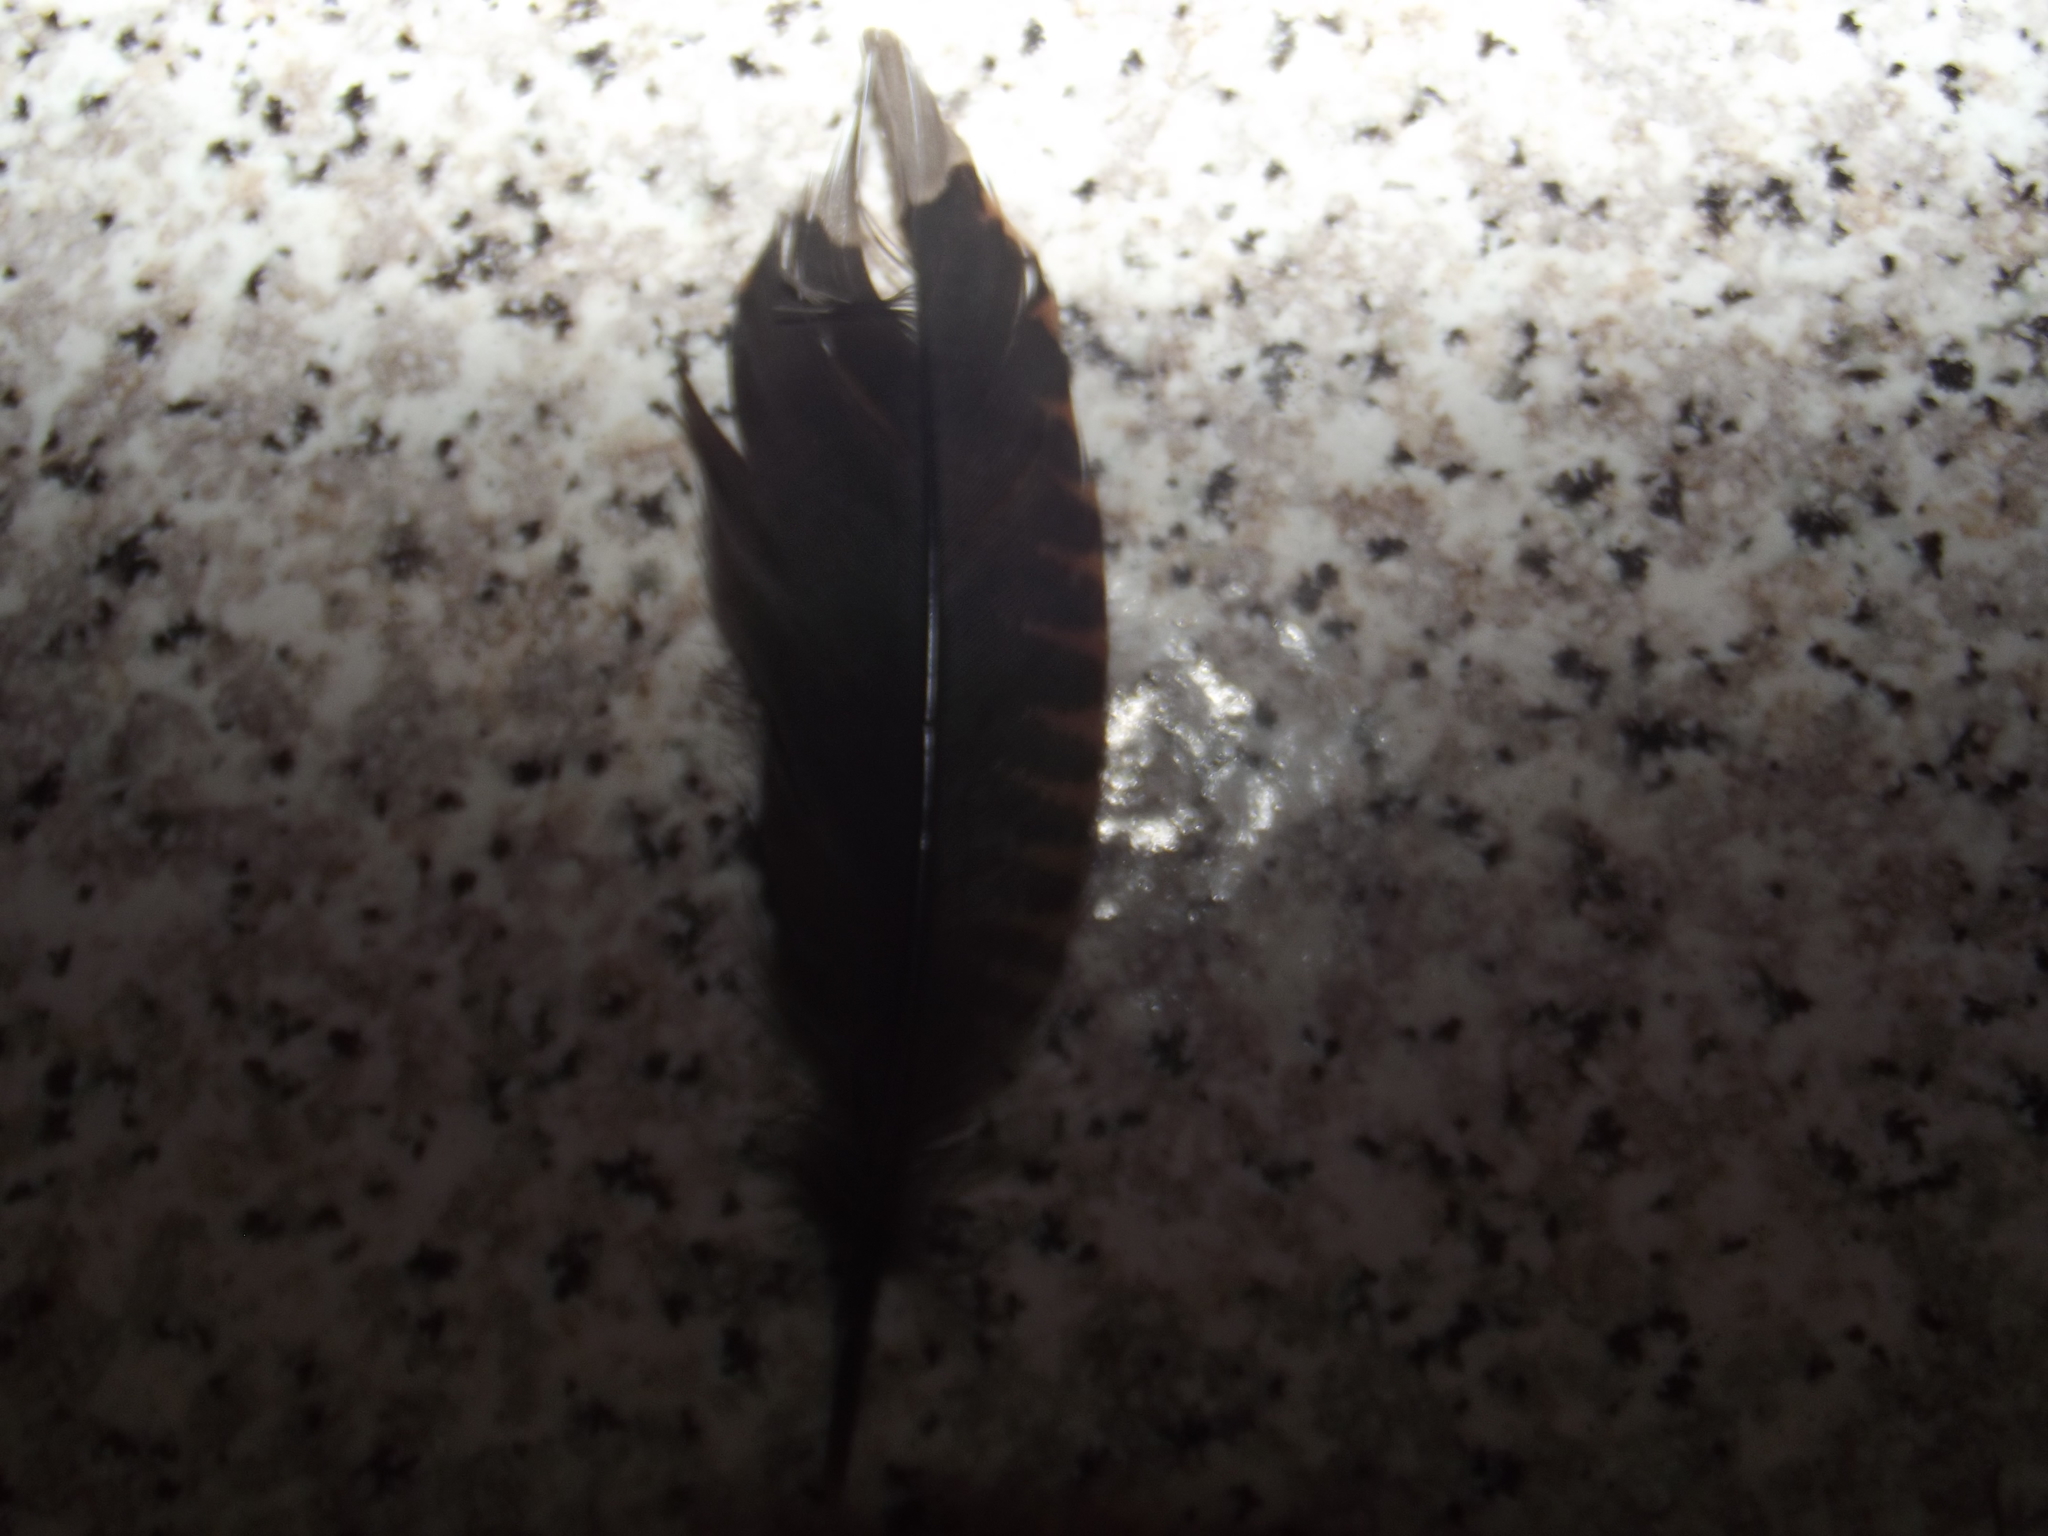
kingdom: Animalia
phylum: Chordata
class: Aves
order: Charadriiformes
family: Scolopacidae
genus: Scolopax
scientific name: Scolopax rusticola
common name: Eurasian woodcock
